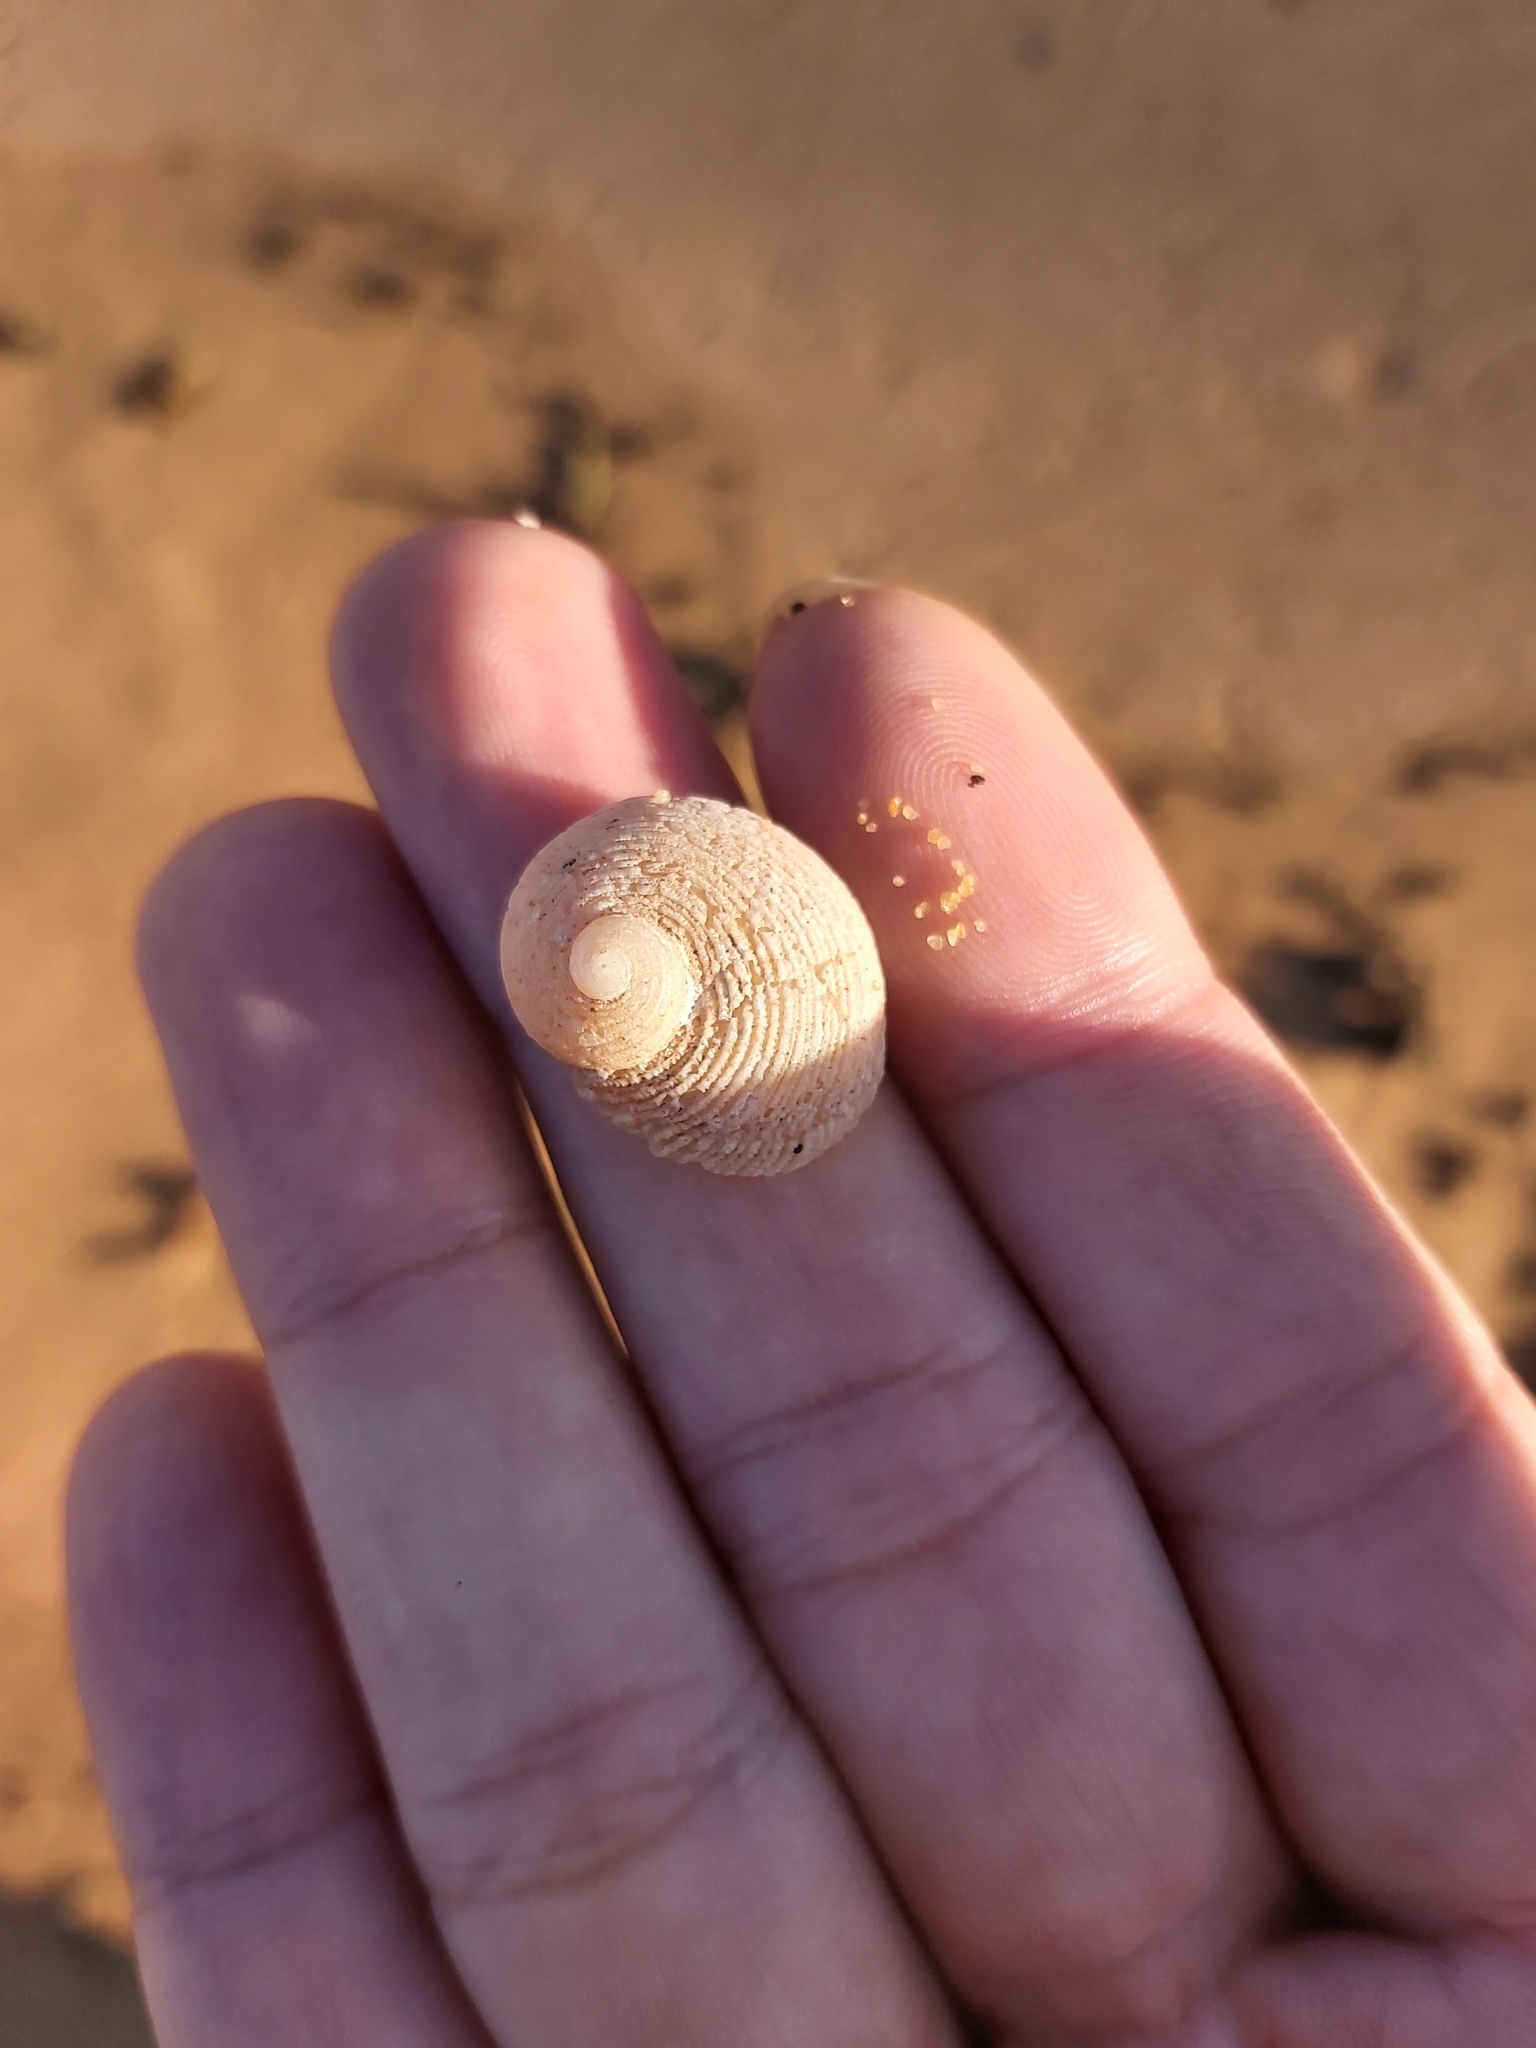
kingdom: Animalia
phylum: Mollusca
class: Gastropoda
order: Seguenziida
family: Chilodontaidae
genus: Granata
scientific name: Granata imbricata
